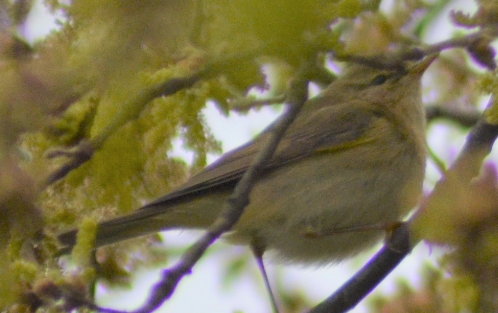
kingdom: Animalia
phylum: Chordata
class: Aves
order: Passeriformes
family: Phylloscopidae
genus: Phylloscopus
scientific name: Phylloscopus trochilus
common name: Willow warbler
